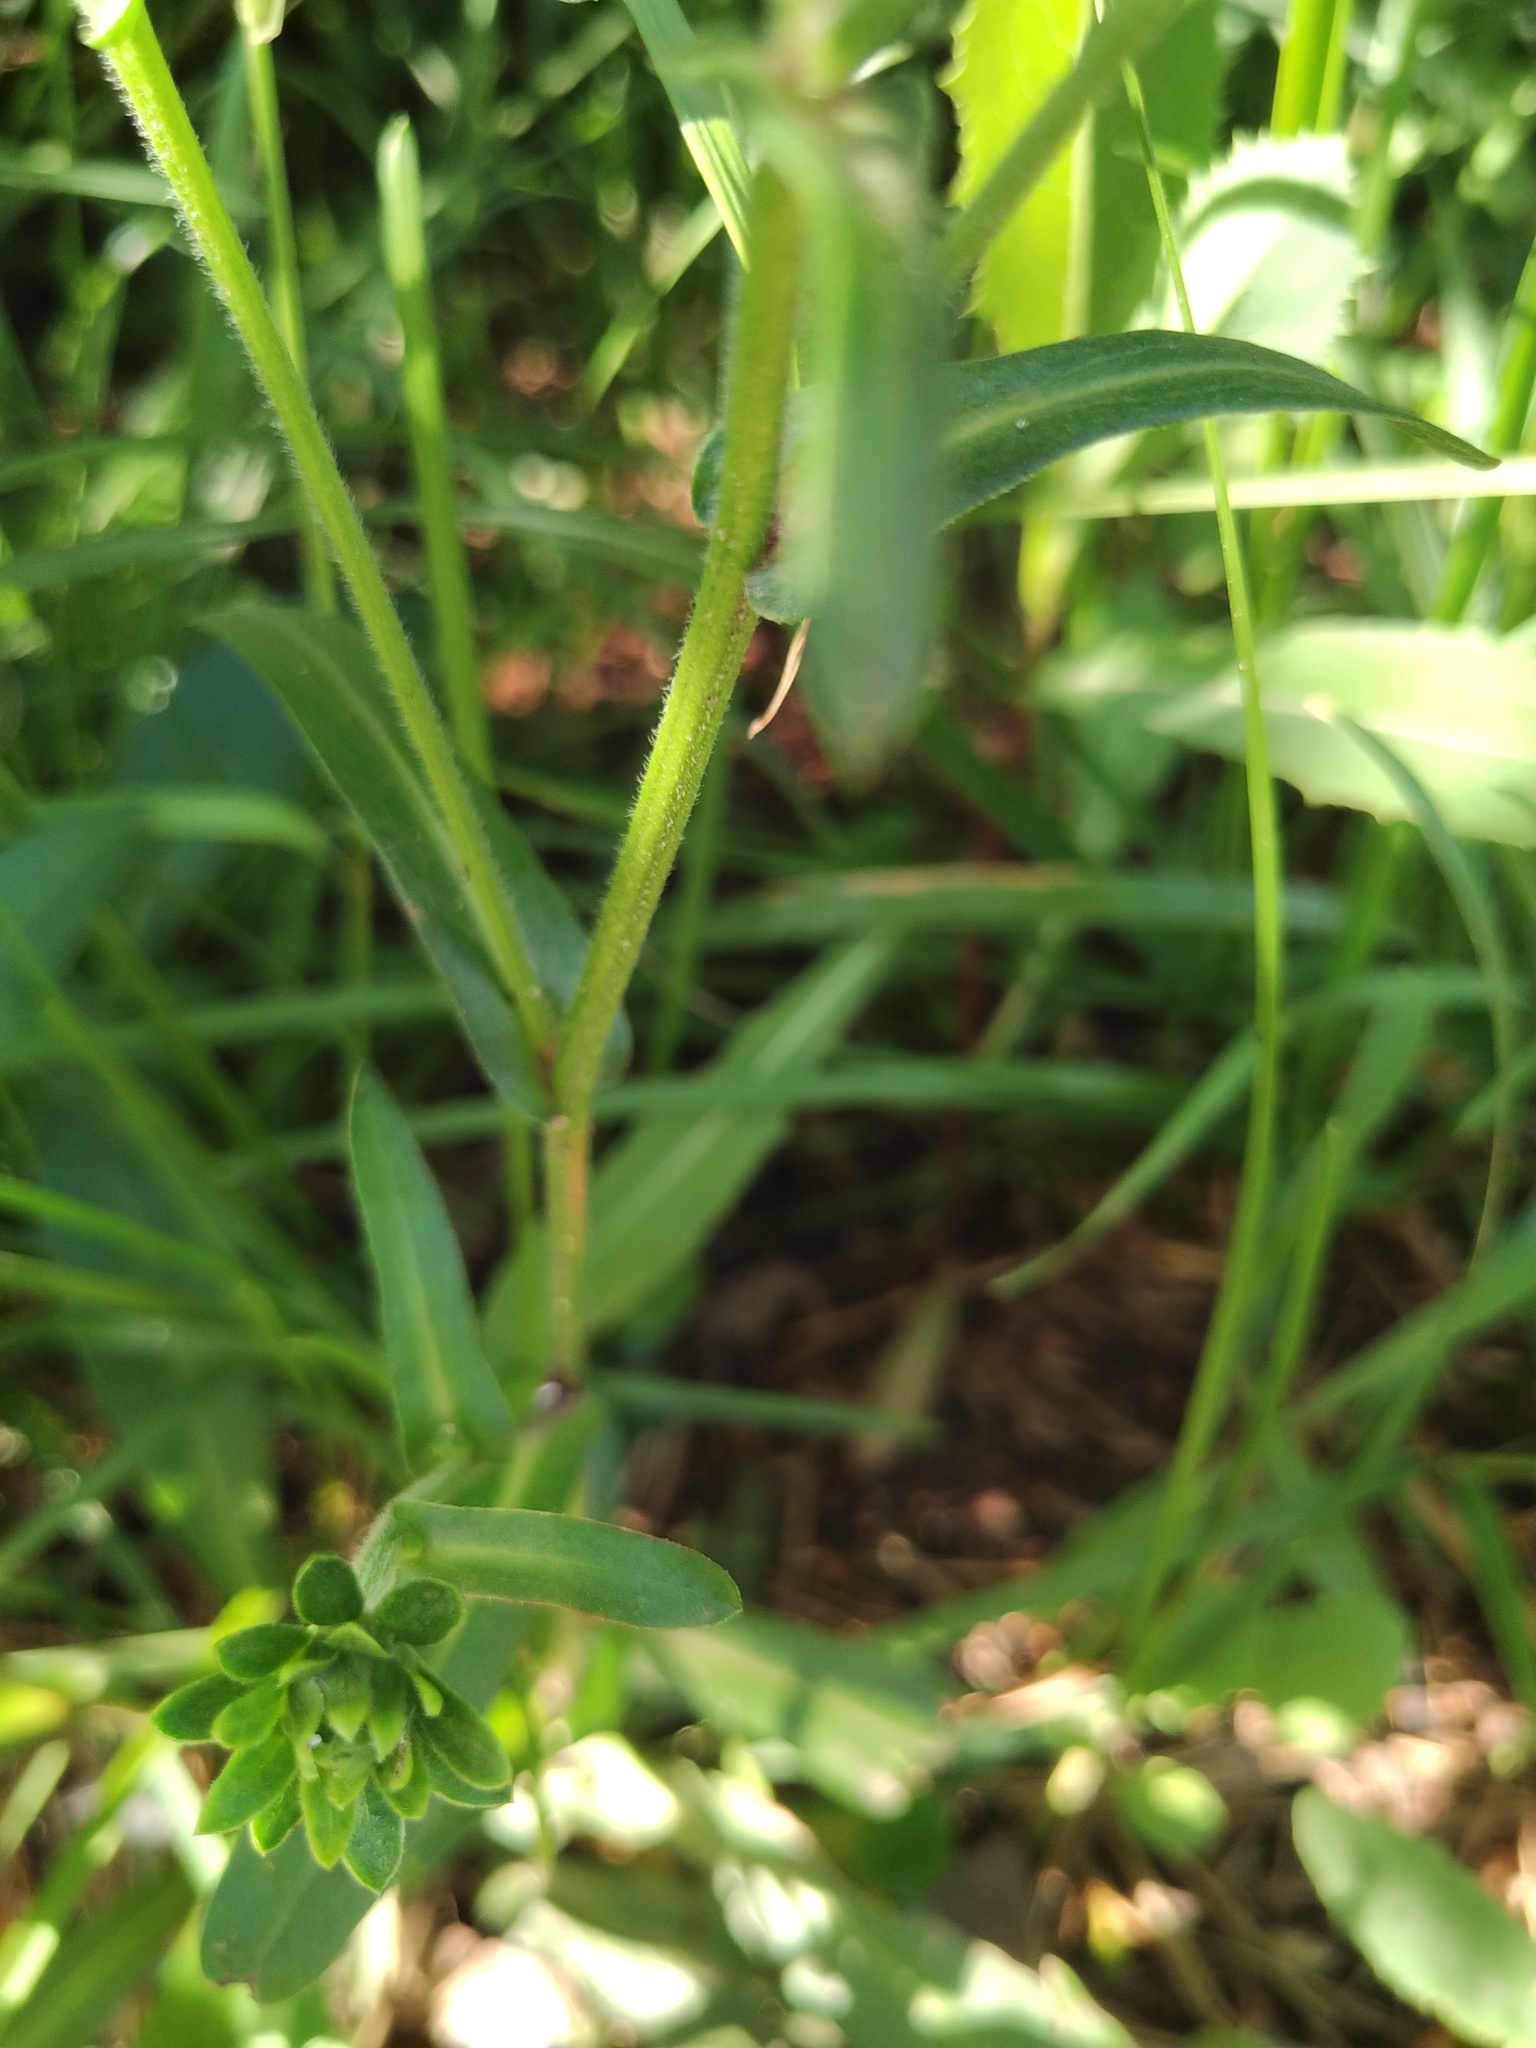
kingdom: Plantae
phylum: Tracheophyta
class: Magnoliopsida
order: Asterales
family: Asteraceae
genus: Aster
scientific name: Aster amellus
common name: European michaelmas daisy
